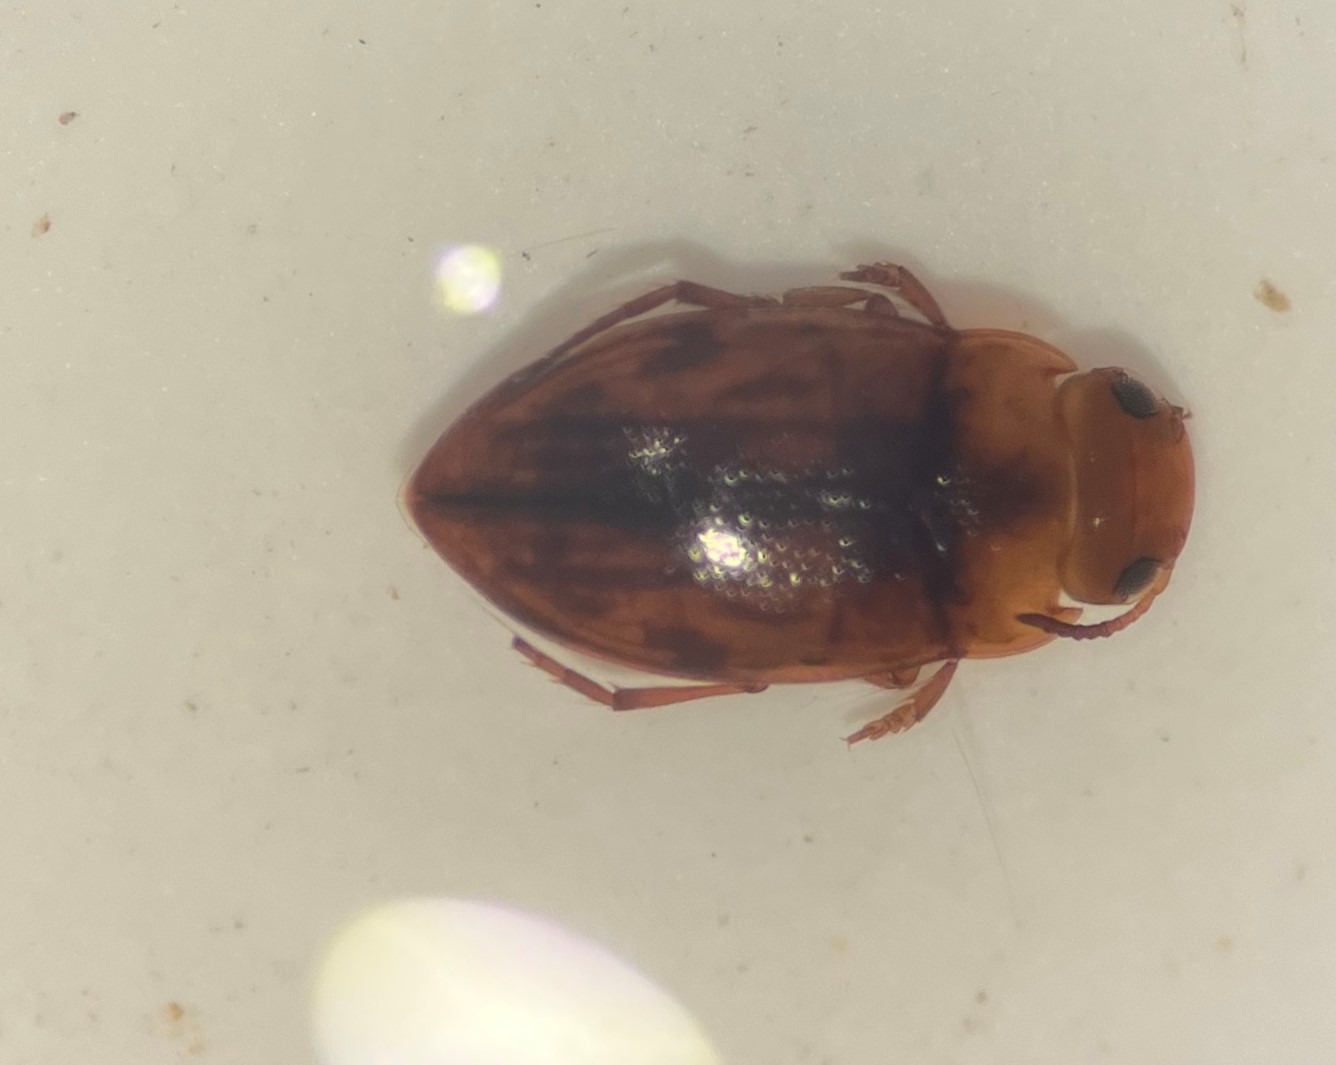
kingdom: Animalia
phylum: Arthropoda
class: Insecta
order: Coleoptera
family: Dytiscidae
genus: Liodessus
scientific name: Liodessus noviaffinis
